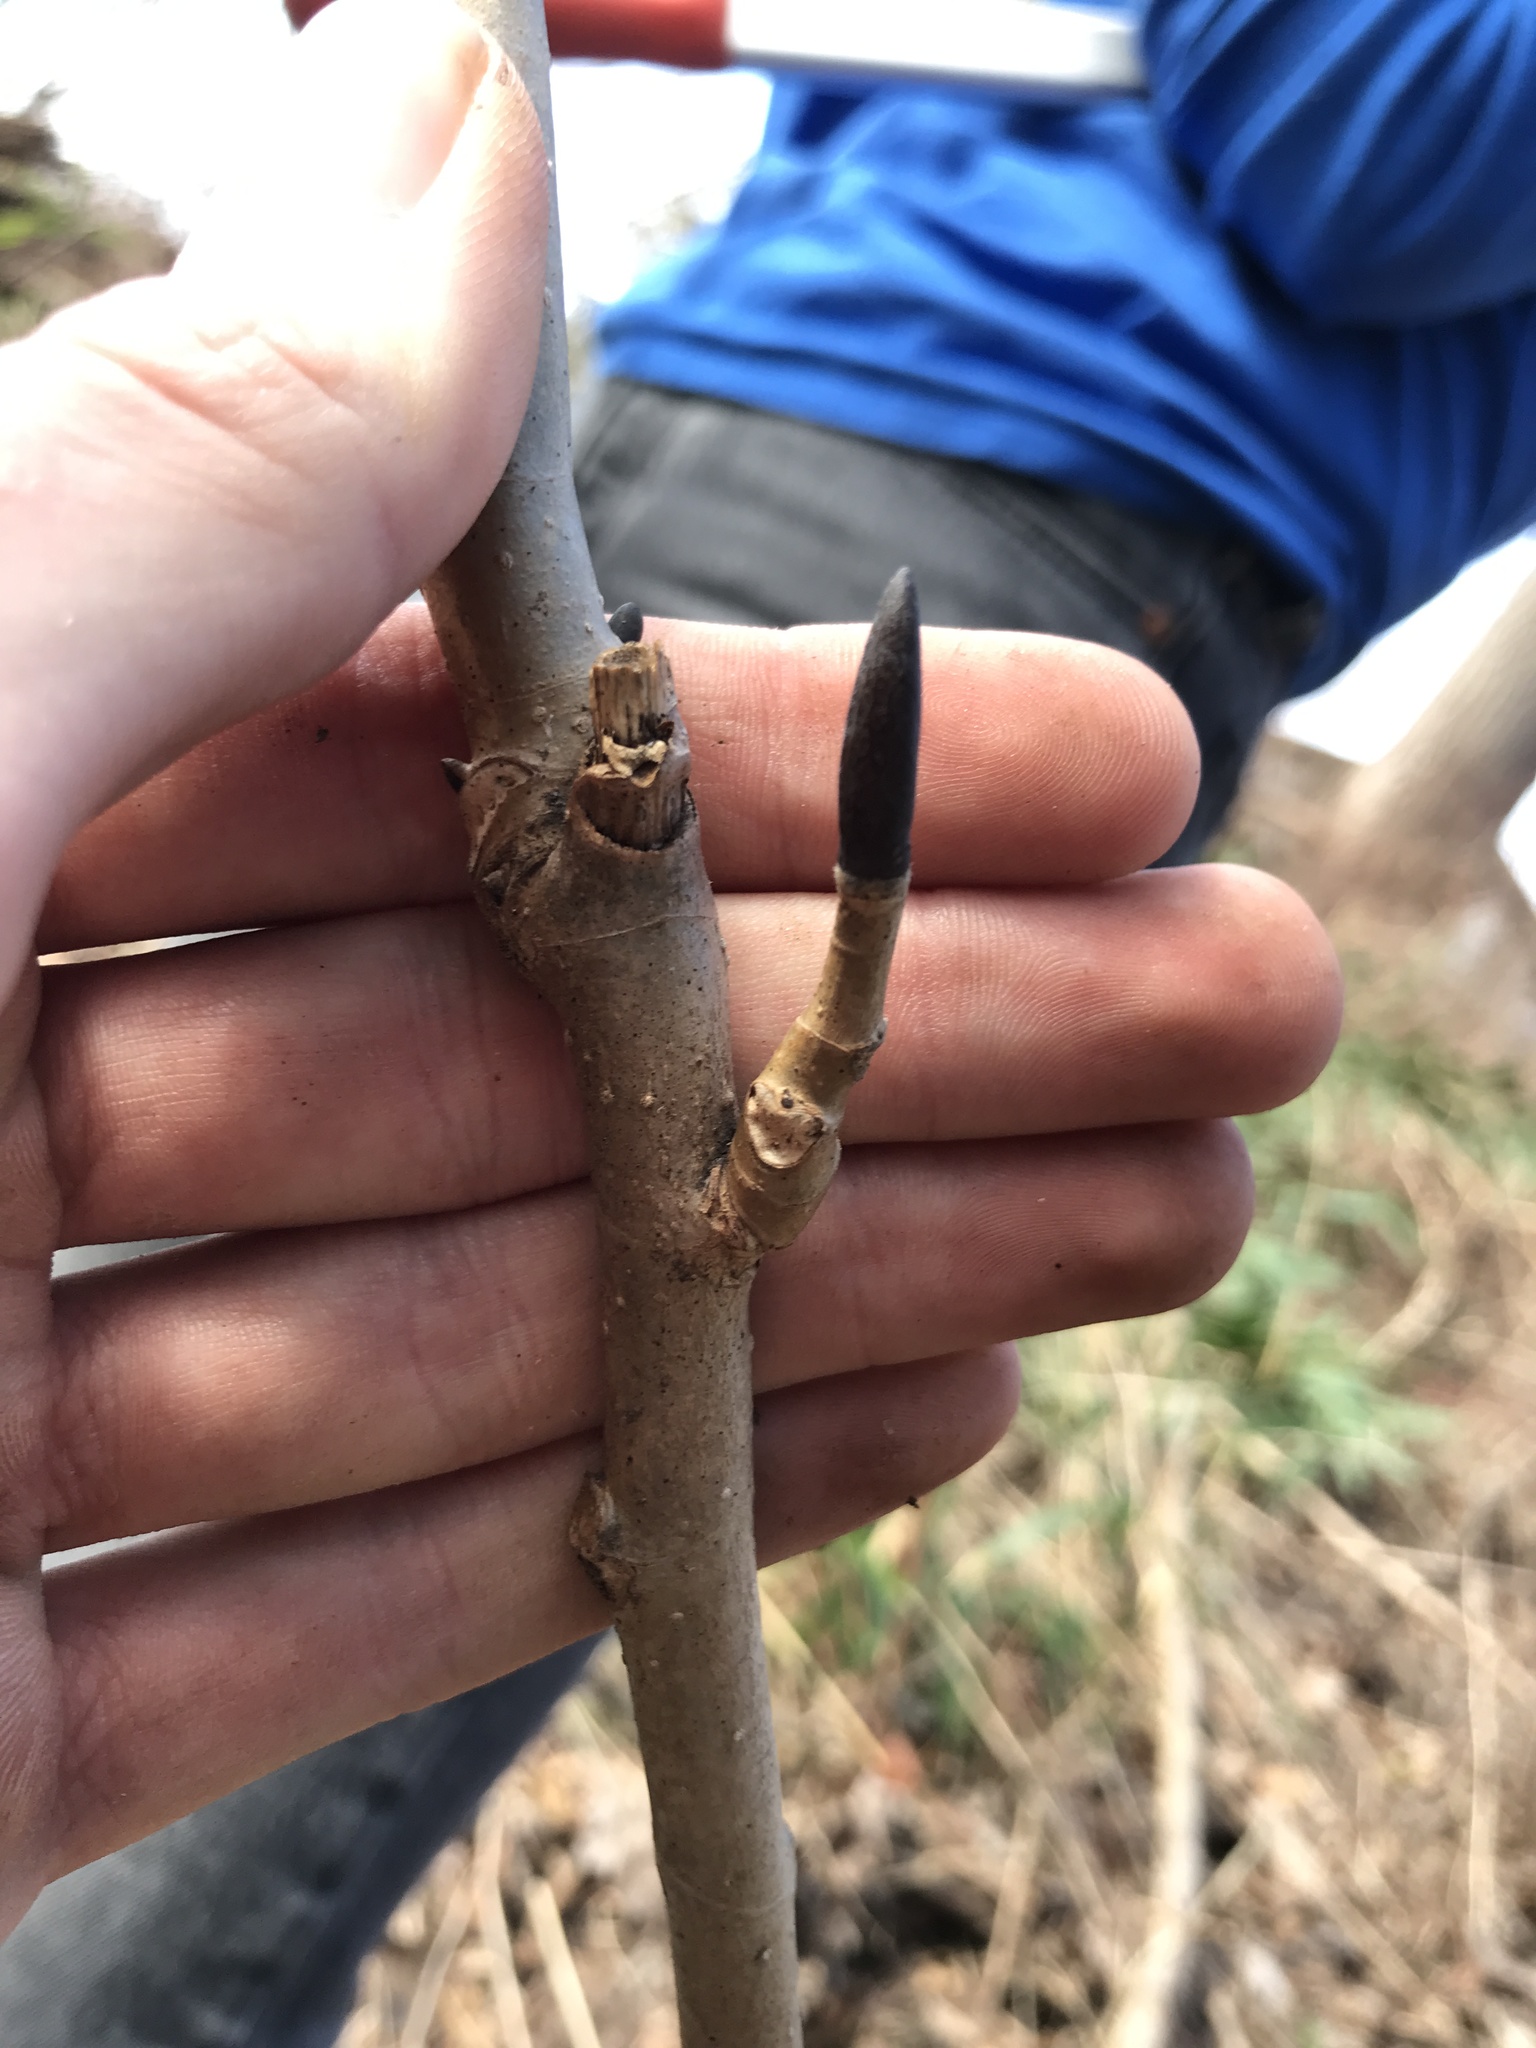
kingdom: Plantae
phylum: Tracheophyta
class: Magnoliopsida
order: Magnoliales
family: Magnoliaceae
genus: Magnolia
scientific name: Magnolia tripetala
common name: Umbrella magnolia
